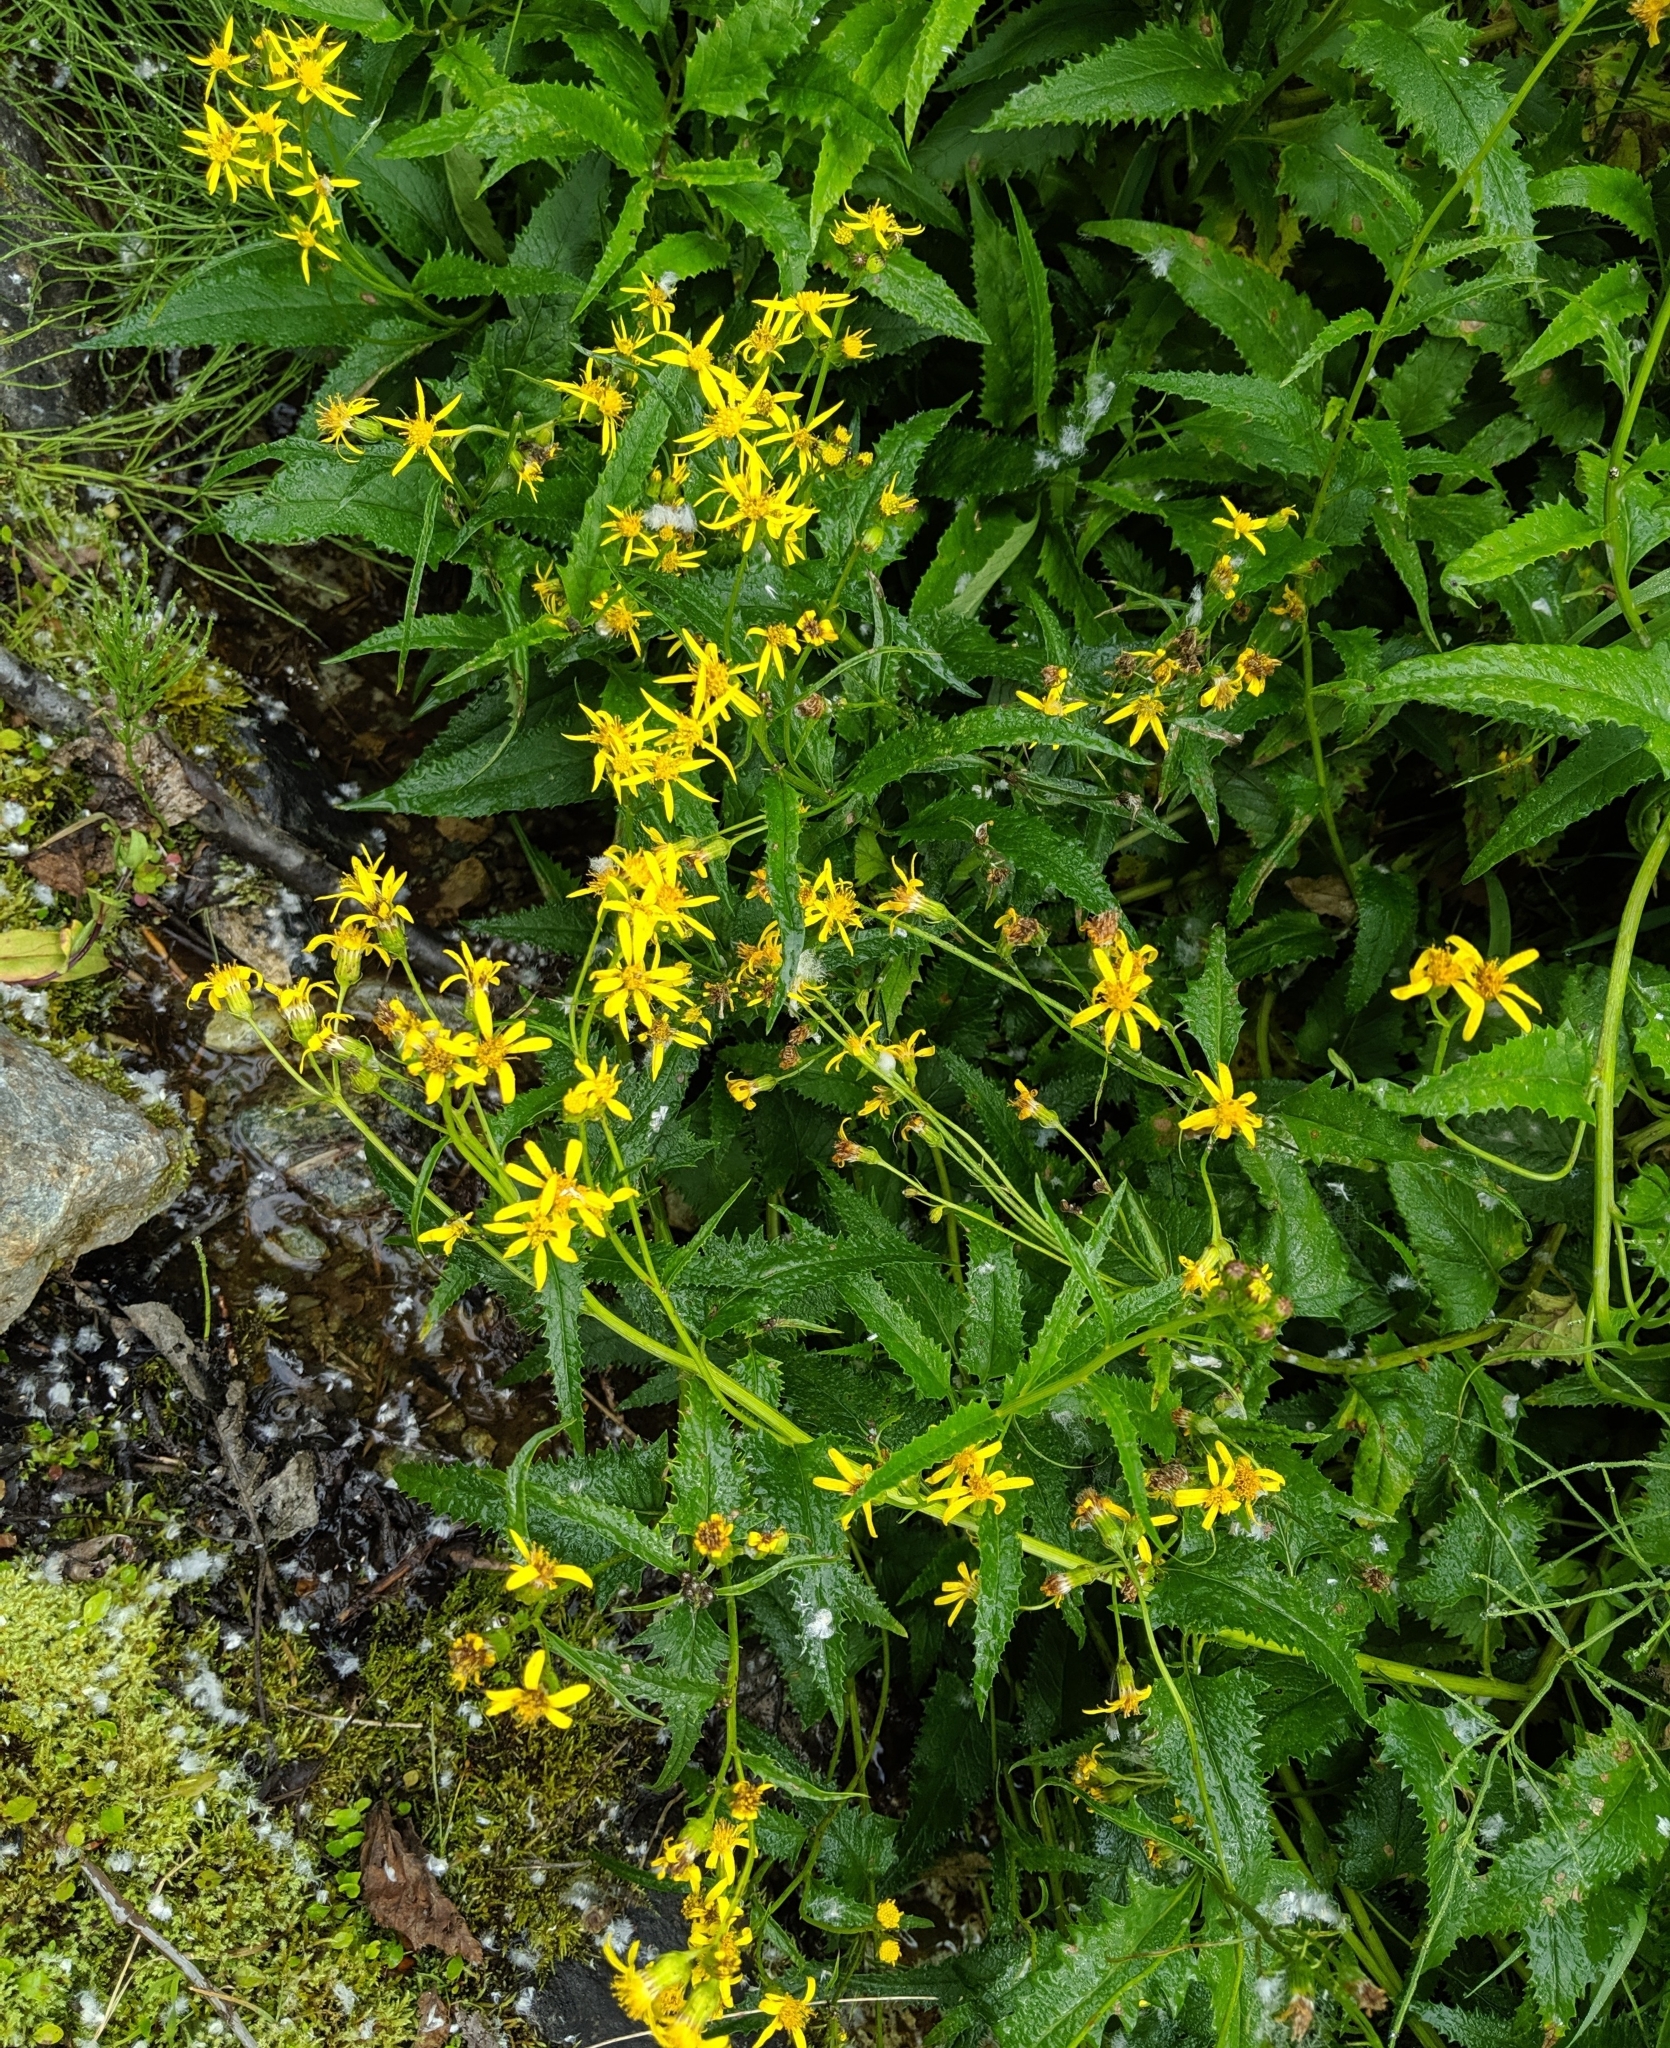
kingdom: Plantae
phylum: Tracheophyta
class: Magnoliopsida
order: Asterales
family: Asteraceae
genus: Senecio
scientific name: Senecio triangularis
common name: Arrowleaf butterweed
